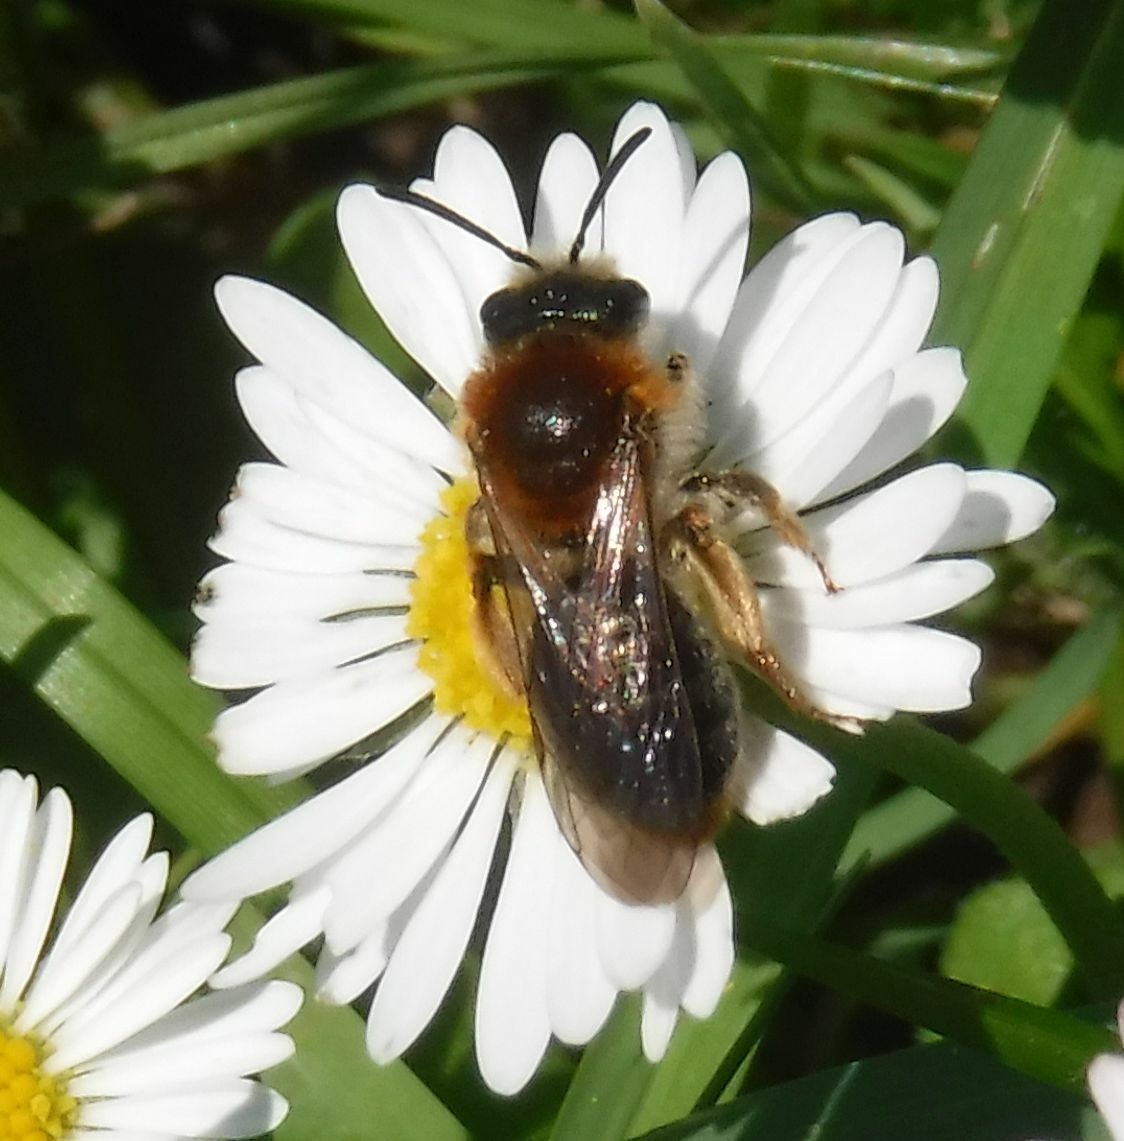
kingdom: Animalia
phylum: Arthropoda
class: Insecta
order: Hymenoptera
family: Andrenidae
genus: Andrena
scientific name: Andrena haemorrhoa
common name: Early mining bee
